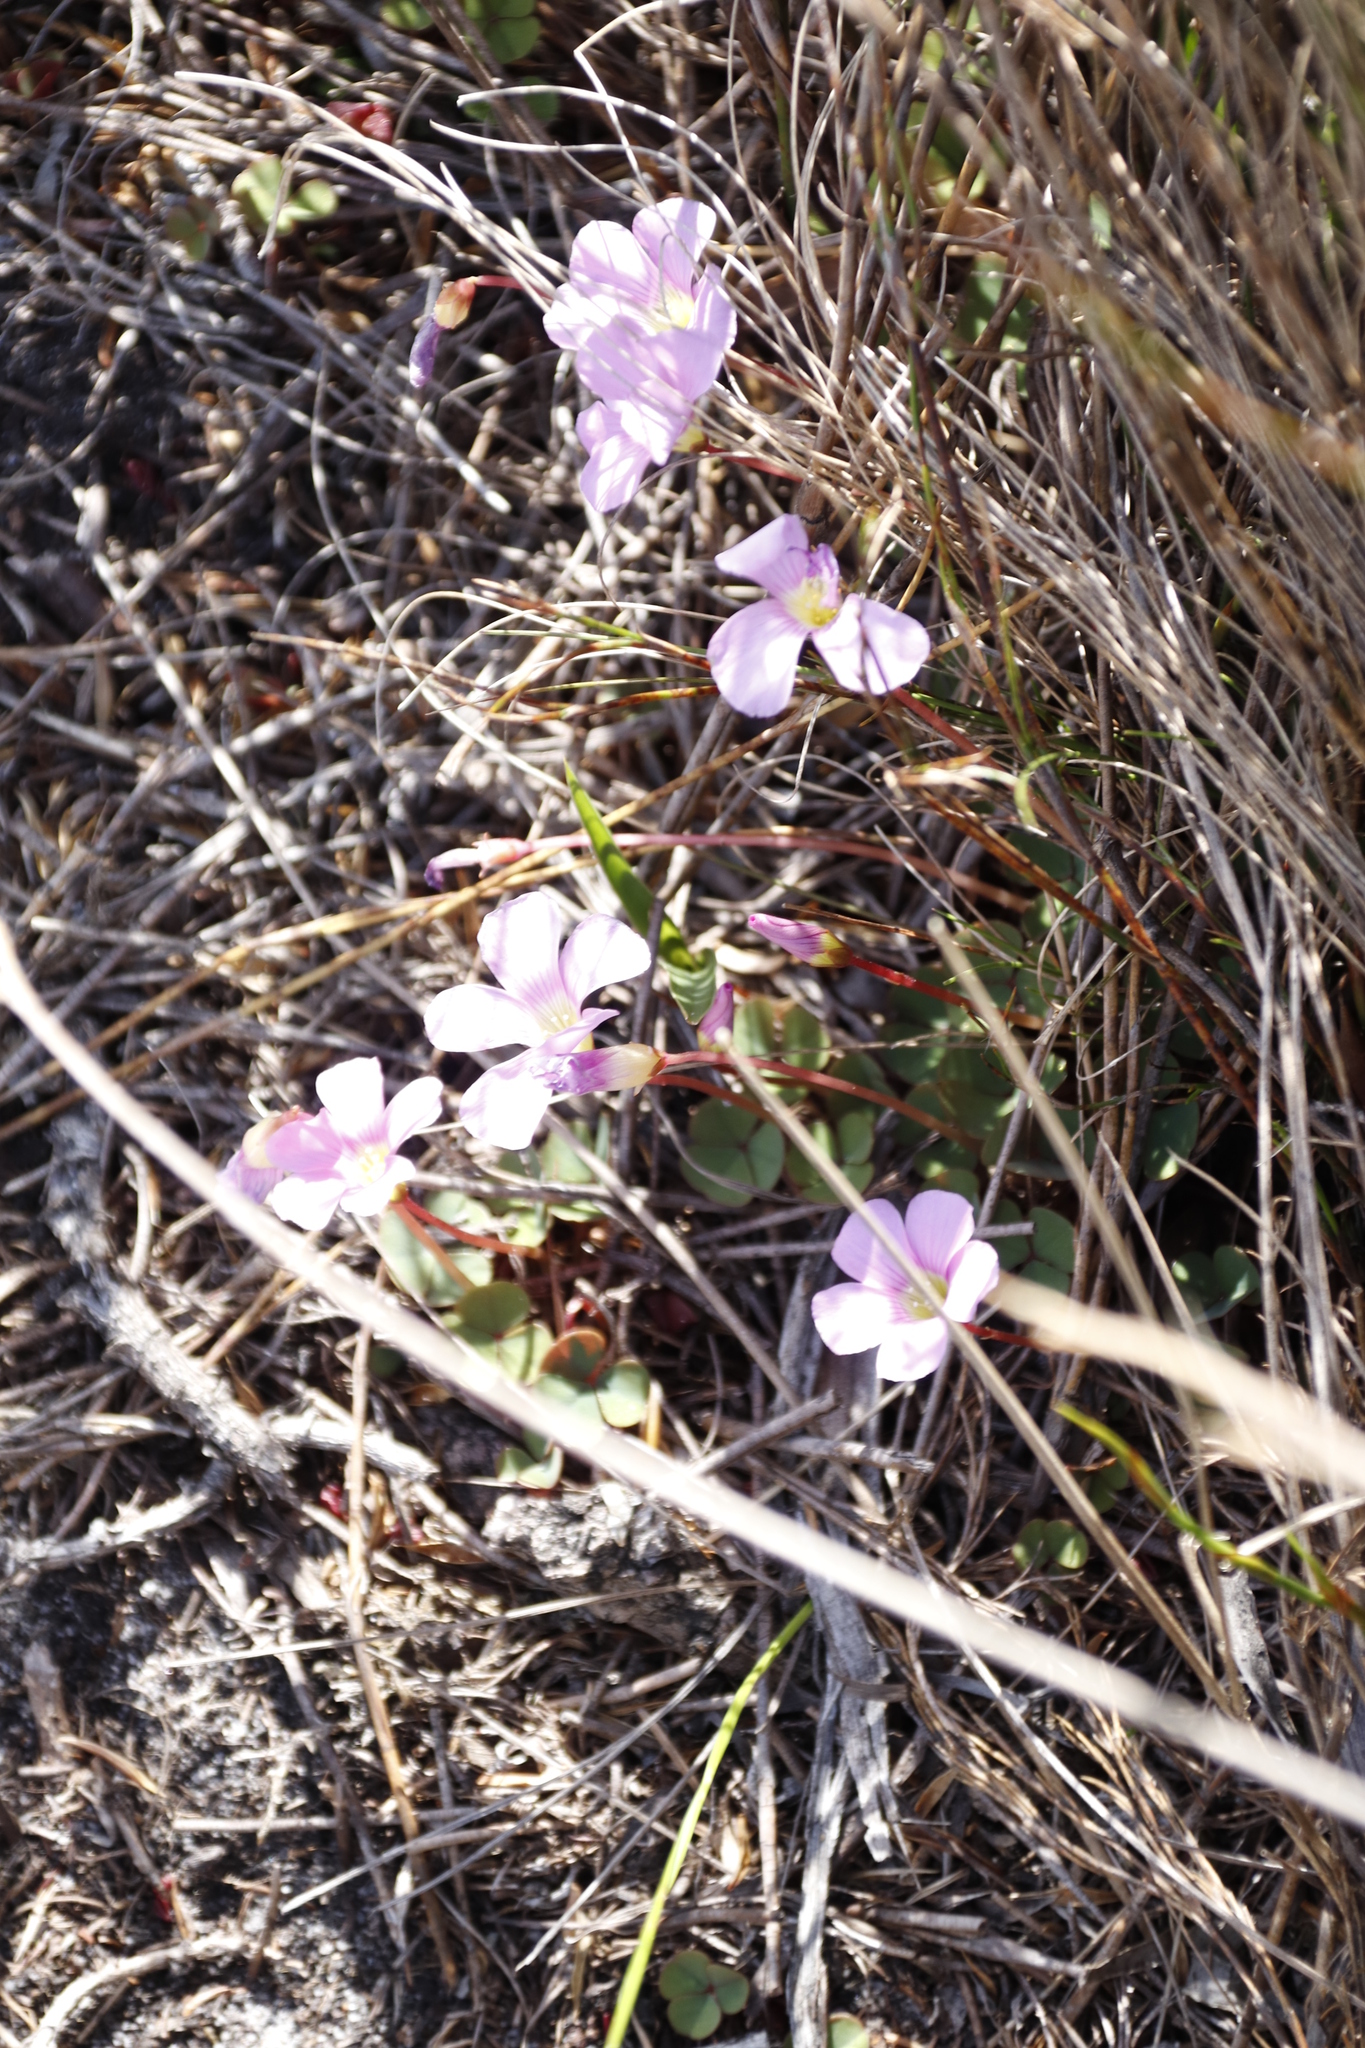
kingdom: Plantae
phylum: Tracheophyta
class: Magnoliopsida
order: Oxalidales
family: Oxalidaceae
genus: Oxalis
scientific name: Oxalis commutata
